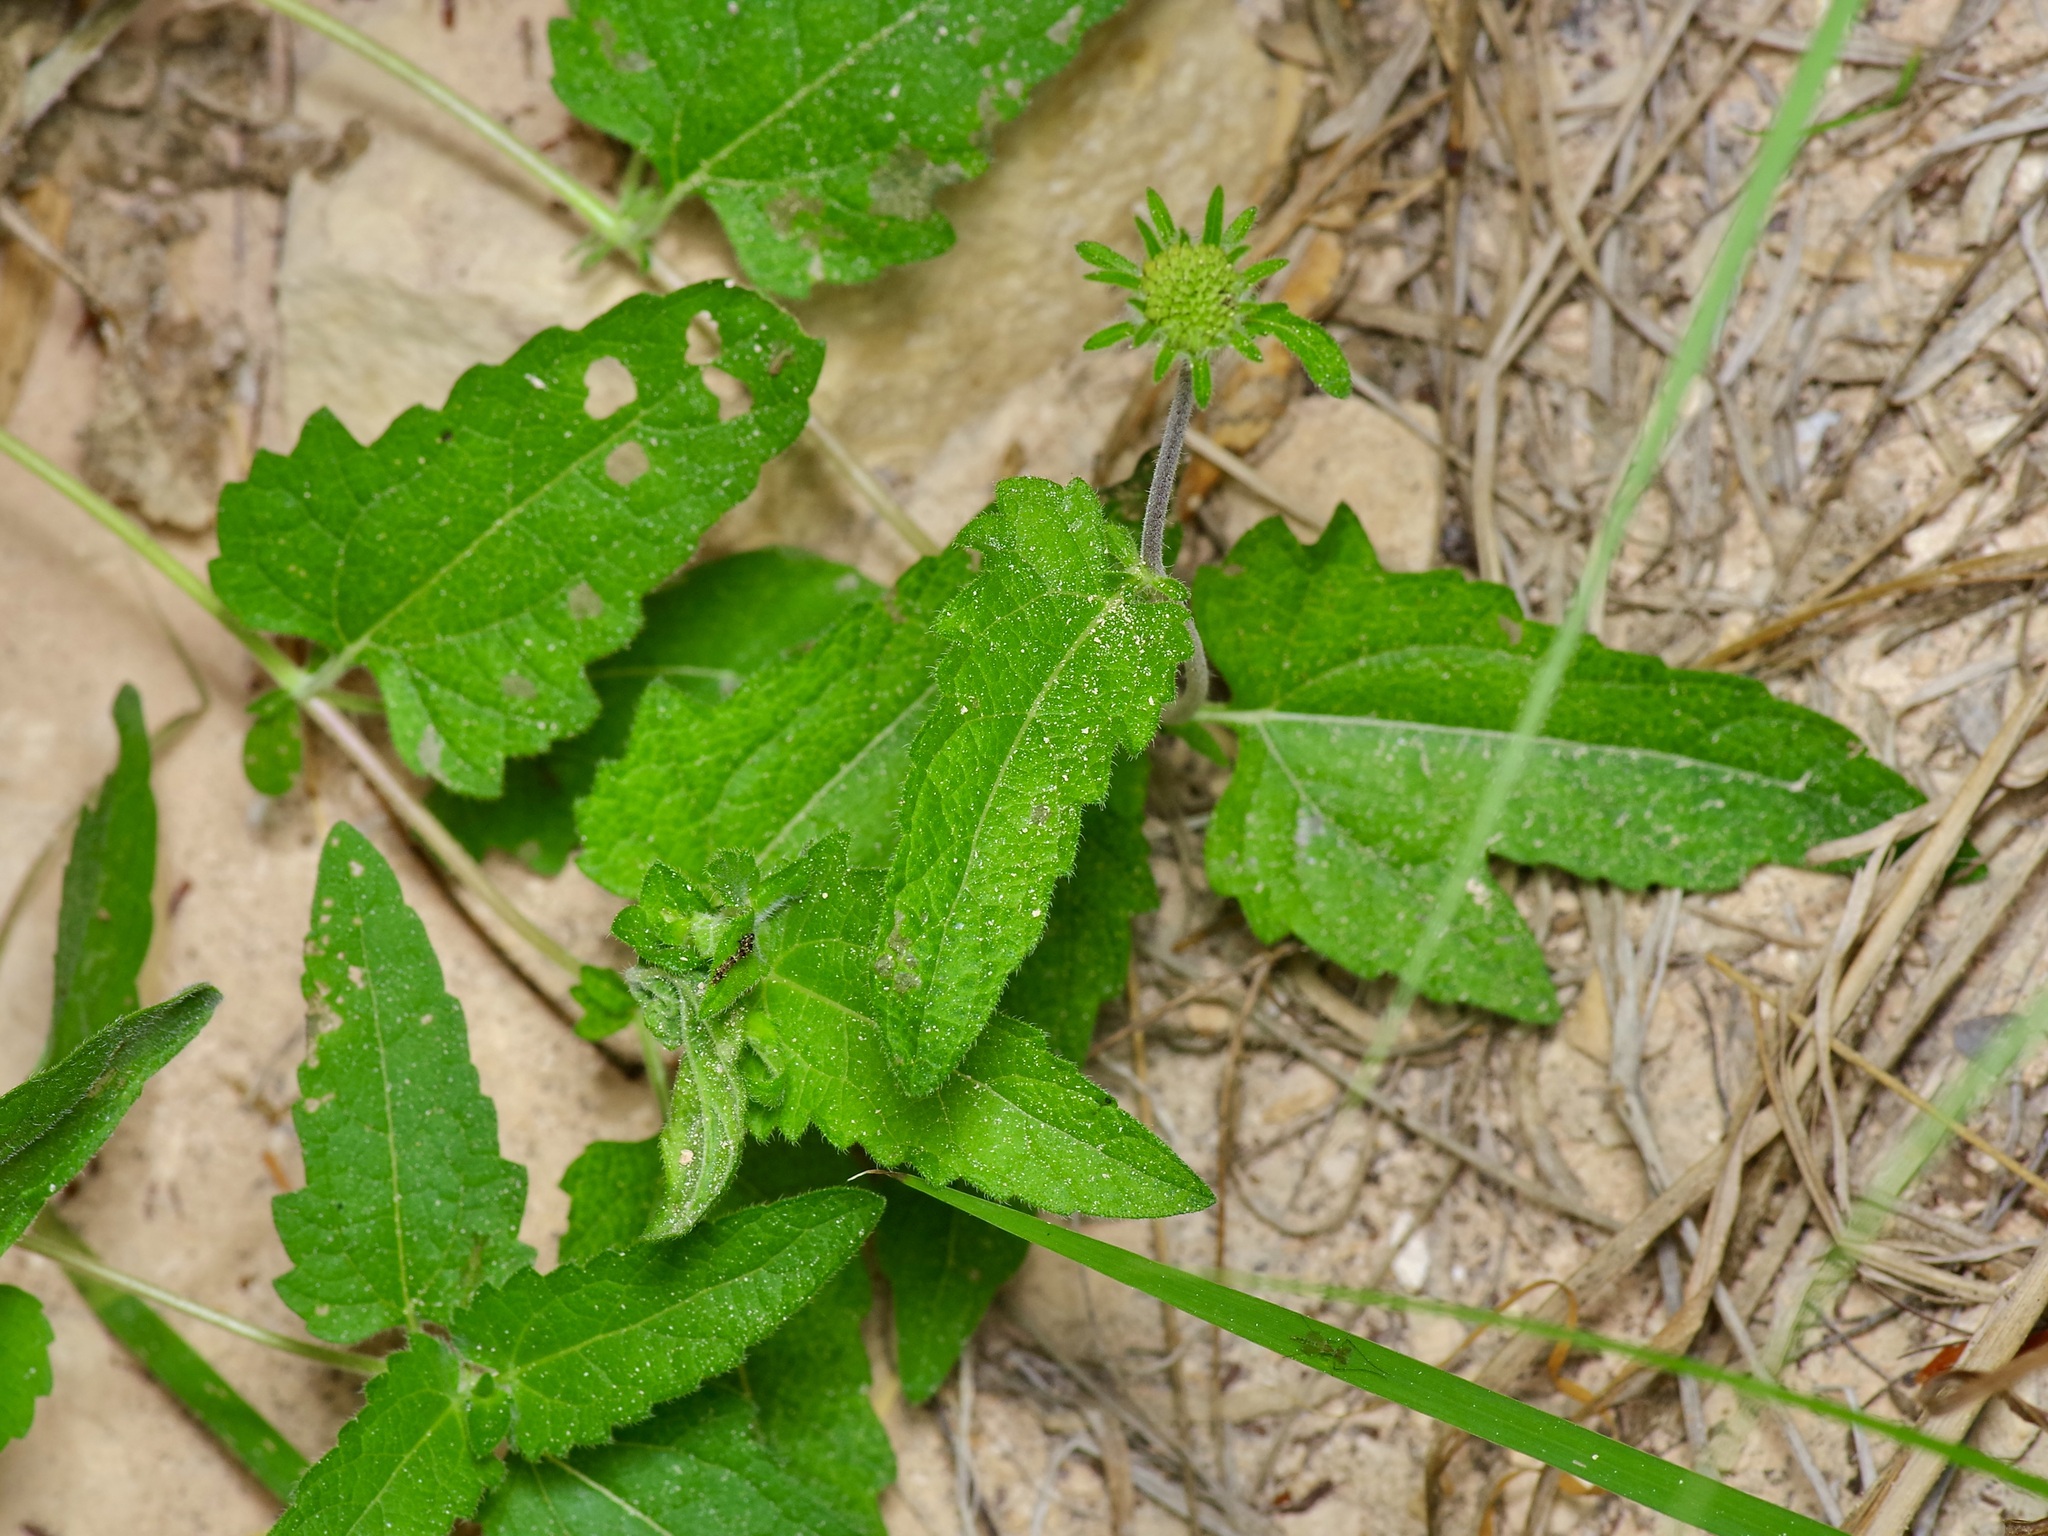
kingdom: Plantae
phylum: Tracheophyta
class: Magnoliopsida
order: Asterales
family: Asteraceae
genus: Simsia
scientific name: Simsia calva
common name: Awnless bush-sunflower
